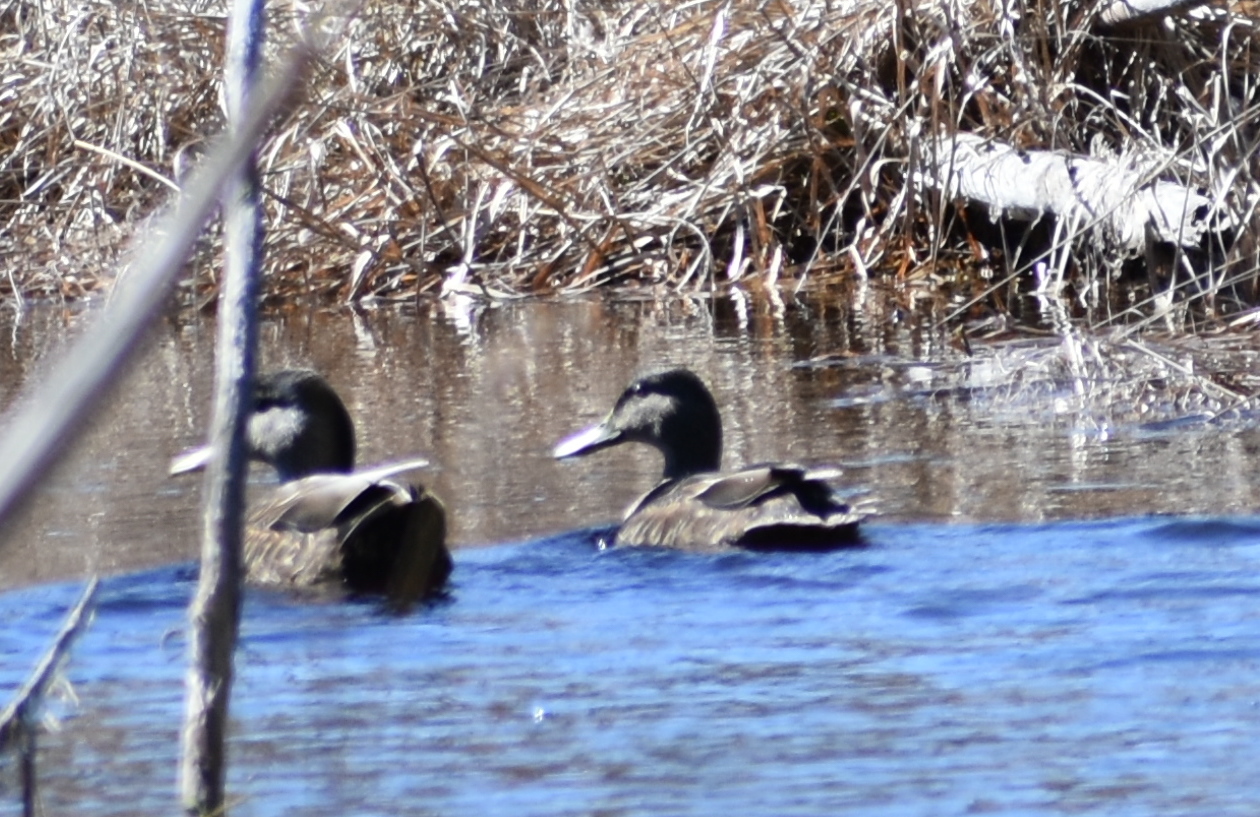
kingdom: Animalia
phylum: Chordata
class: Aves
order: Anseriformes
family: Anatidae
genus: Anas
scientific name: Anas rubripes
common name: American black duck
